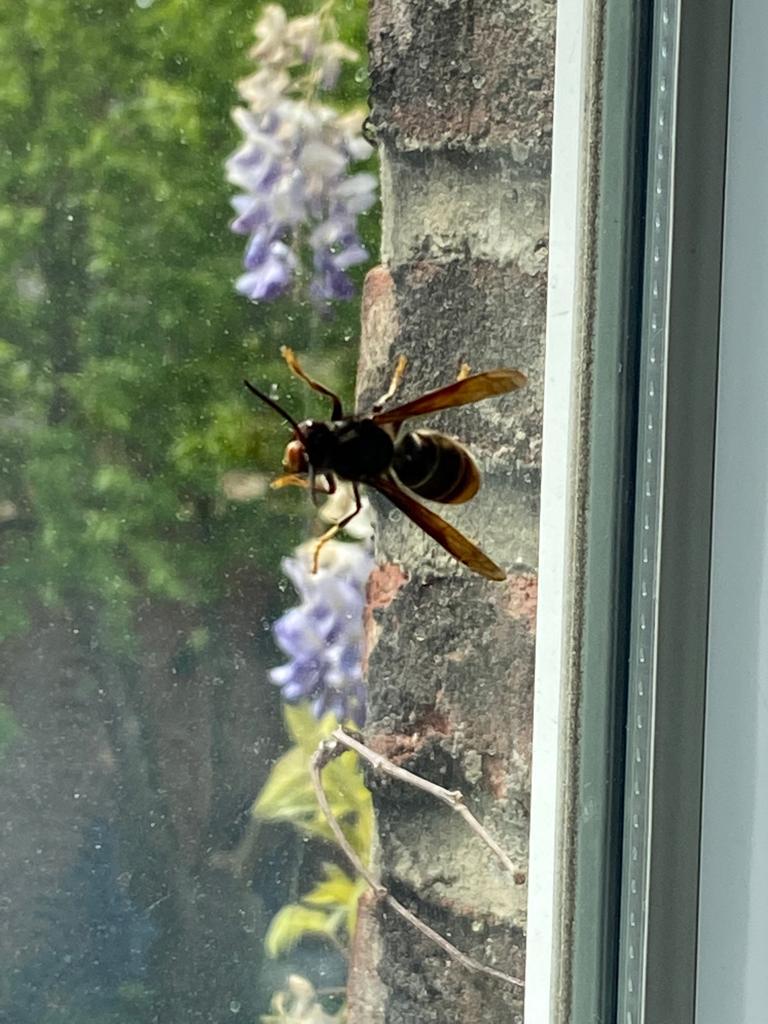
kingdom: Animalia
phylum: Arthropoda
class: Insecta
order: Hymenoptera
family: Vespidae
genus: Vespa
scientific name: Vespa velutina
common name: Asian hornet
